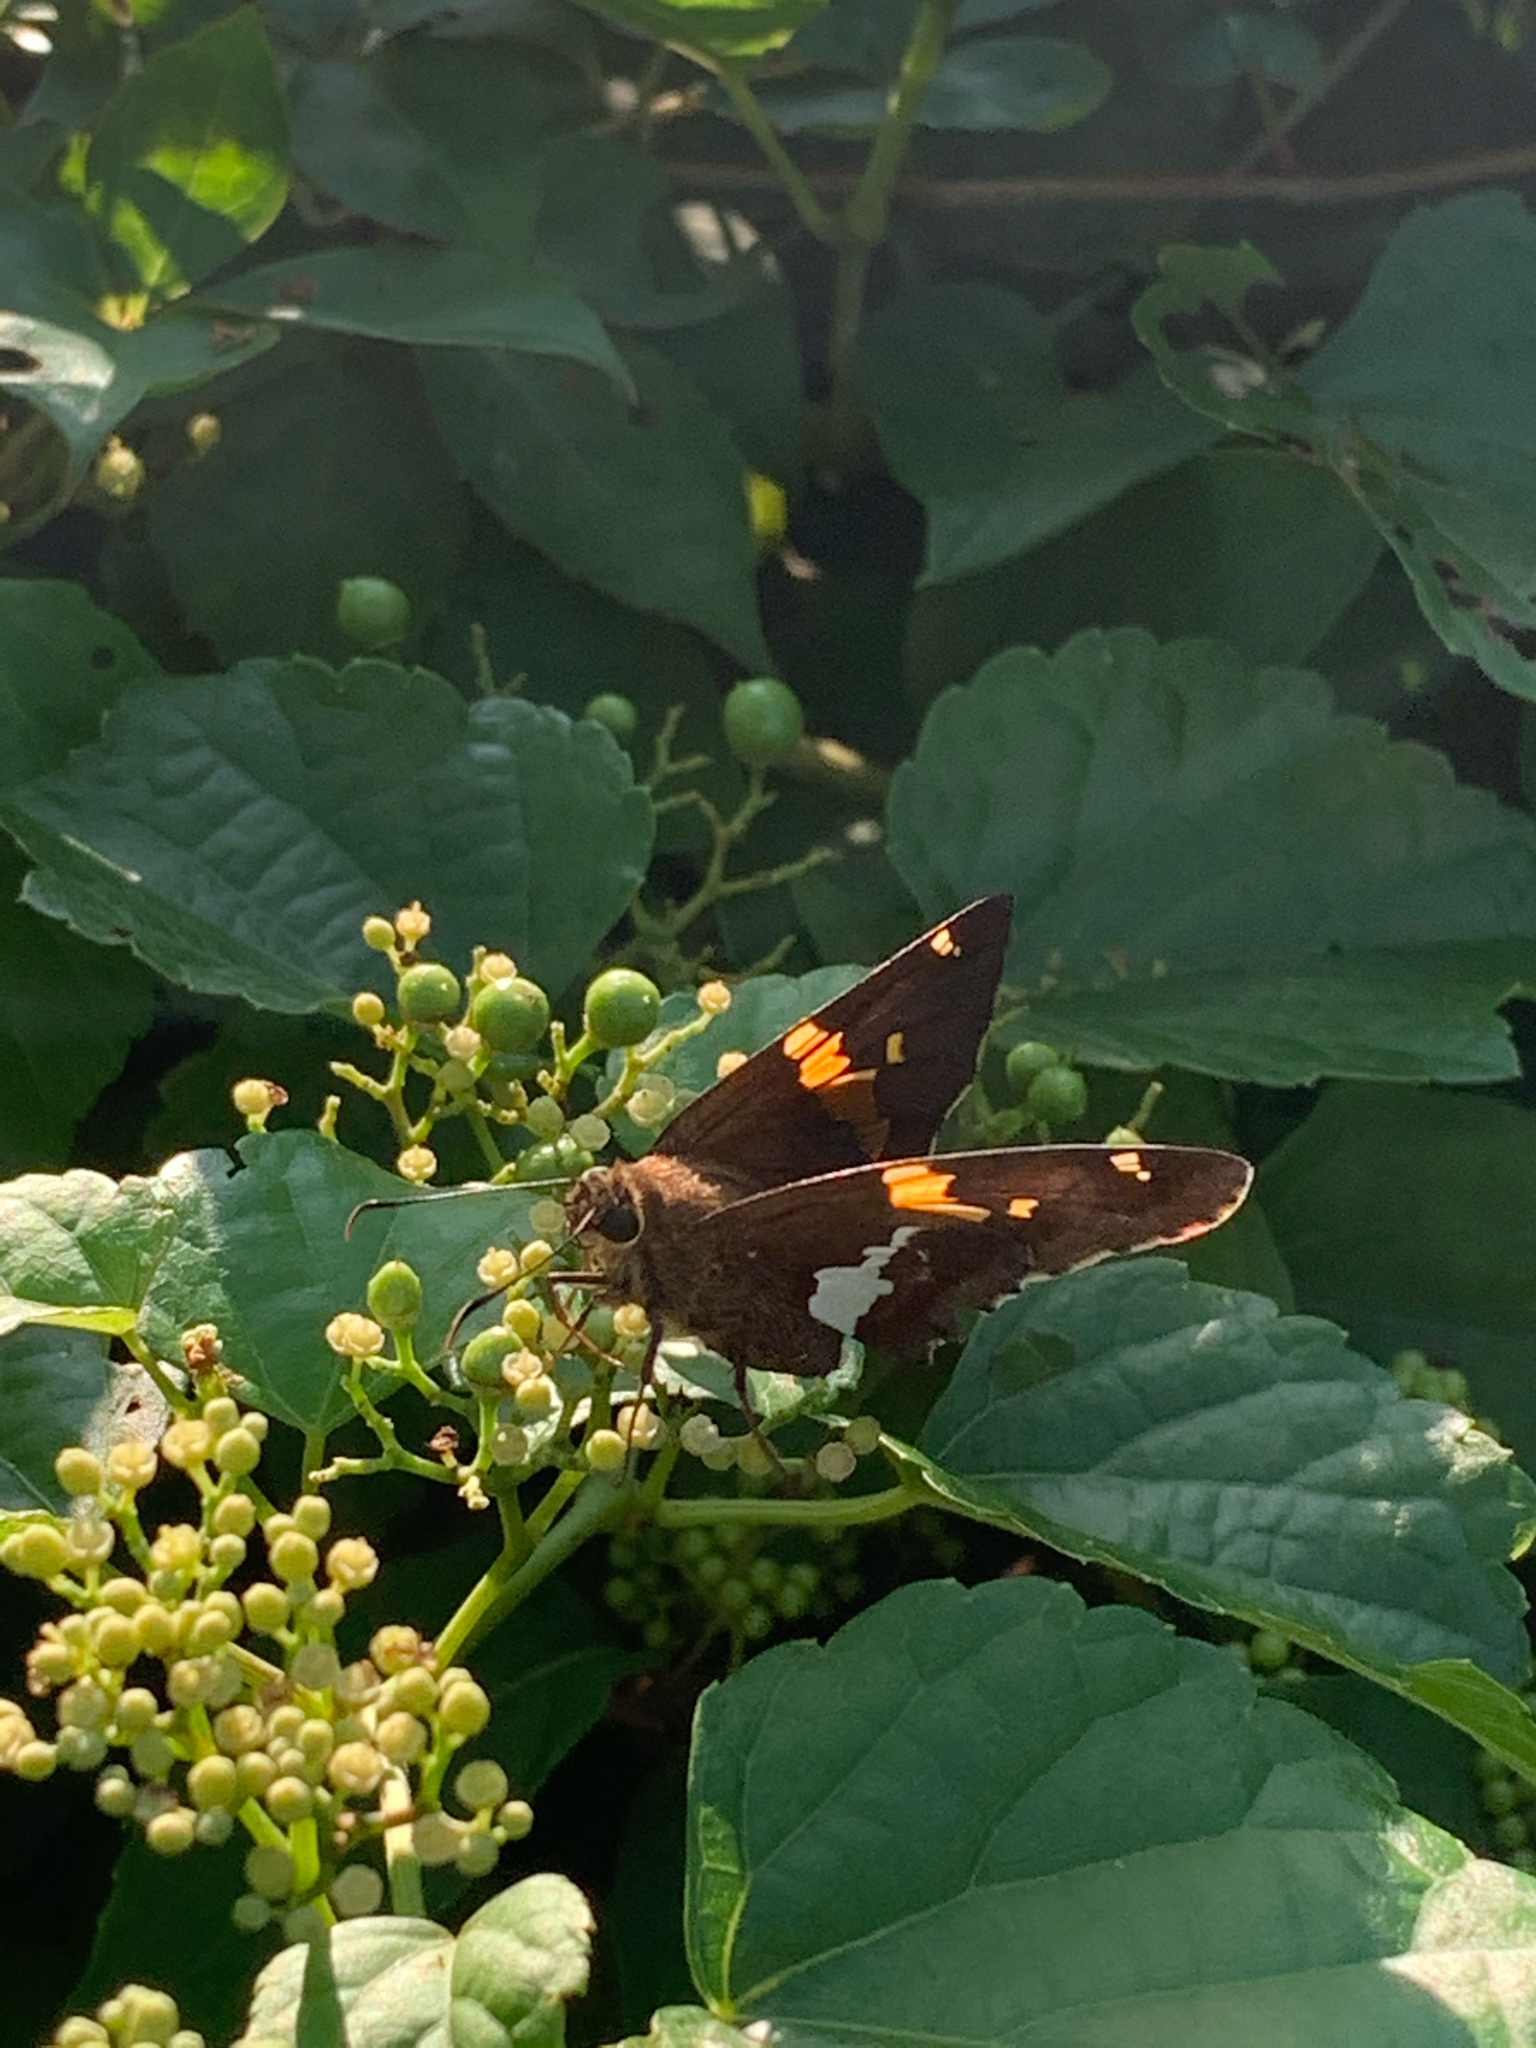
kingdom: Animalia
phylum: Arthropoda
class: Insecta
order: Lepidoptera
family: Hesperiidae
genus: Epargyreus
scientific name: Epargyreus clarus
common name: Silver-spotted skipper
